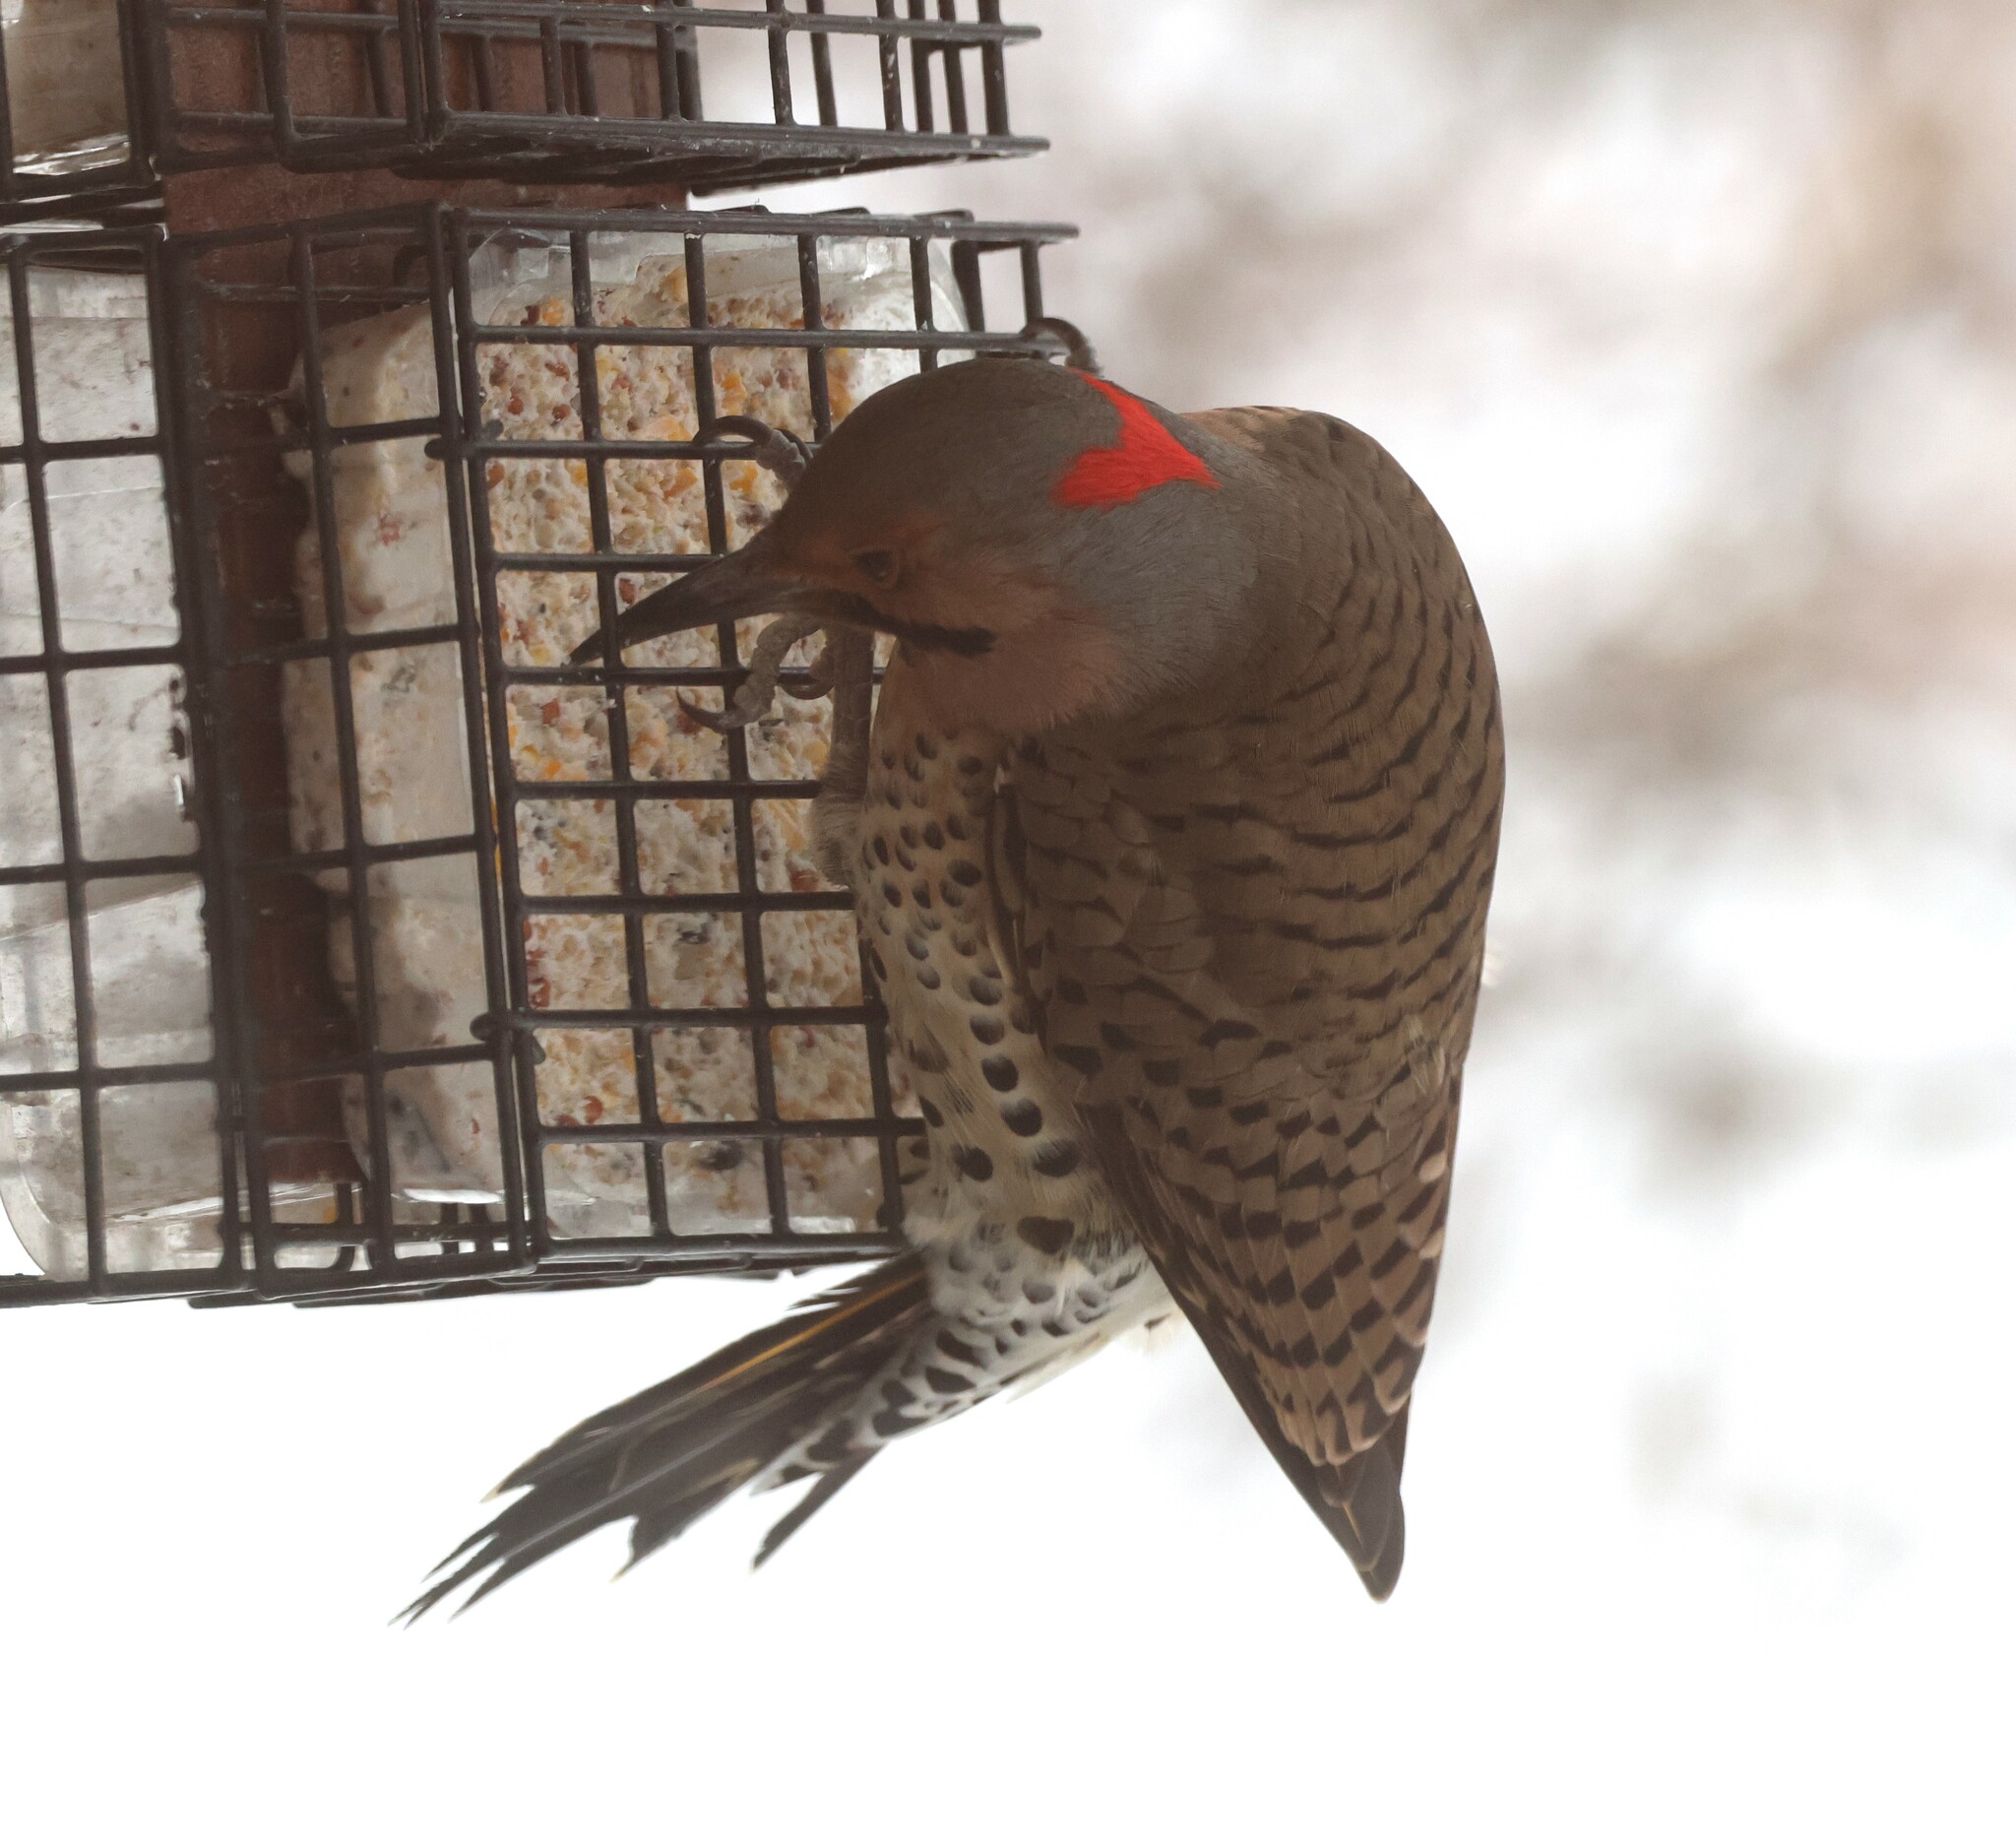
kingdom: Animalia
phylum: Chordata
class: Aves
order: Piciformes
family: Picidae
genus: Colaptes
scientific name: Colaptes auratus
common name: Northern flicker
